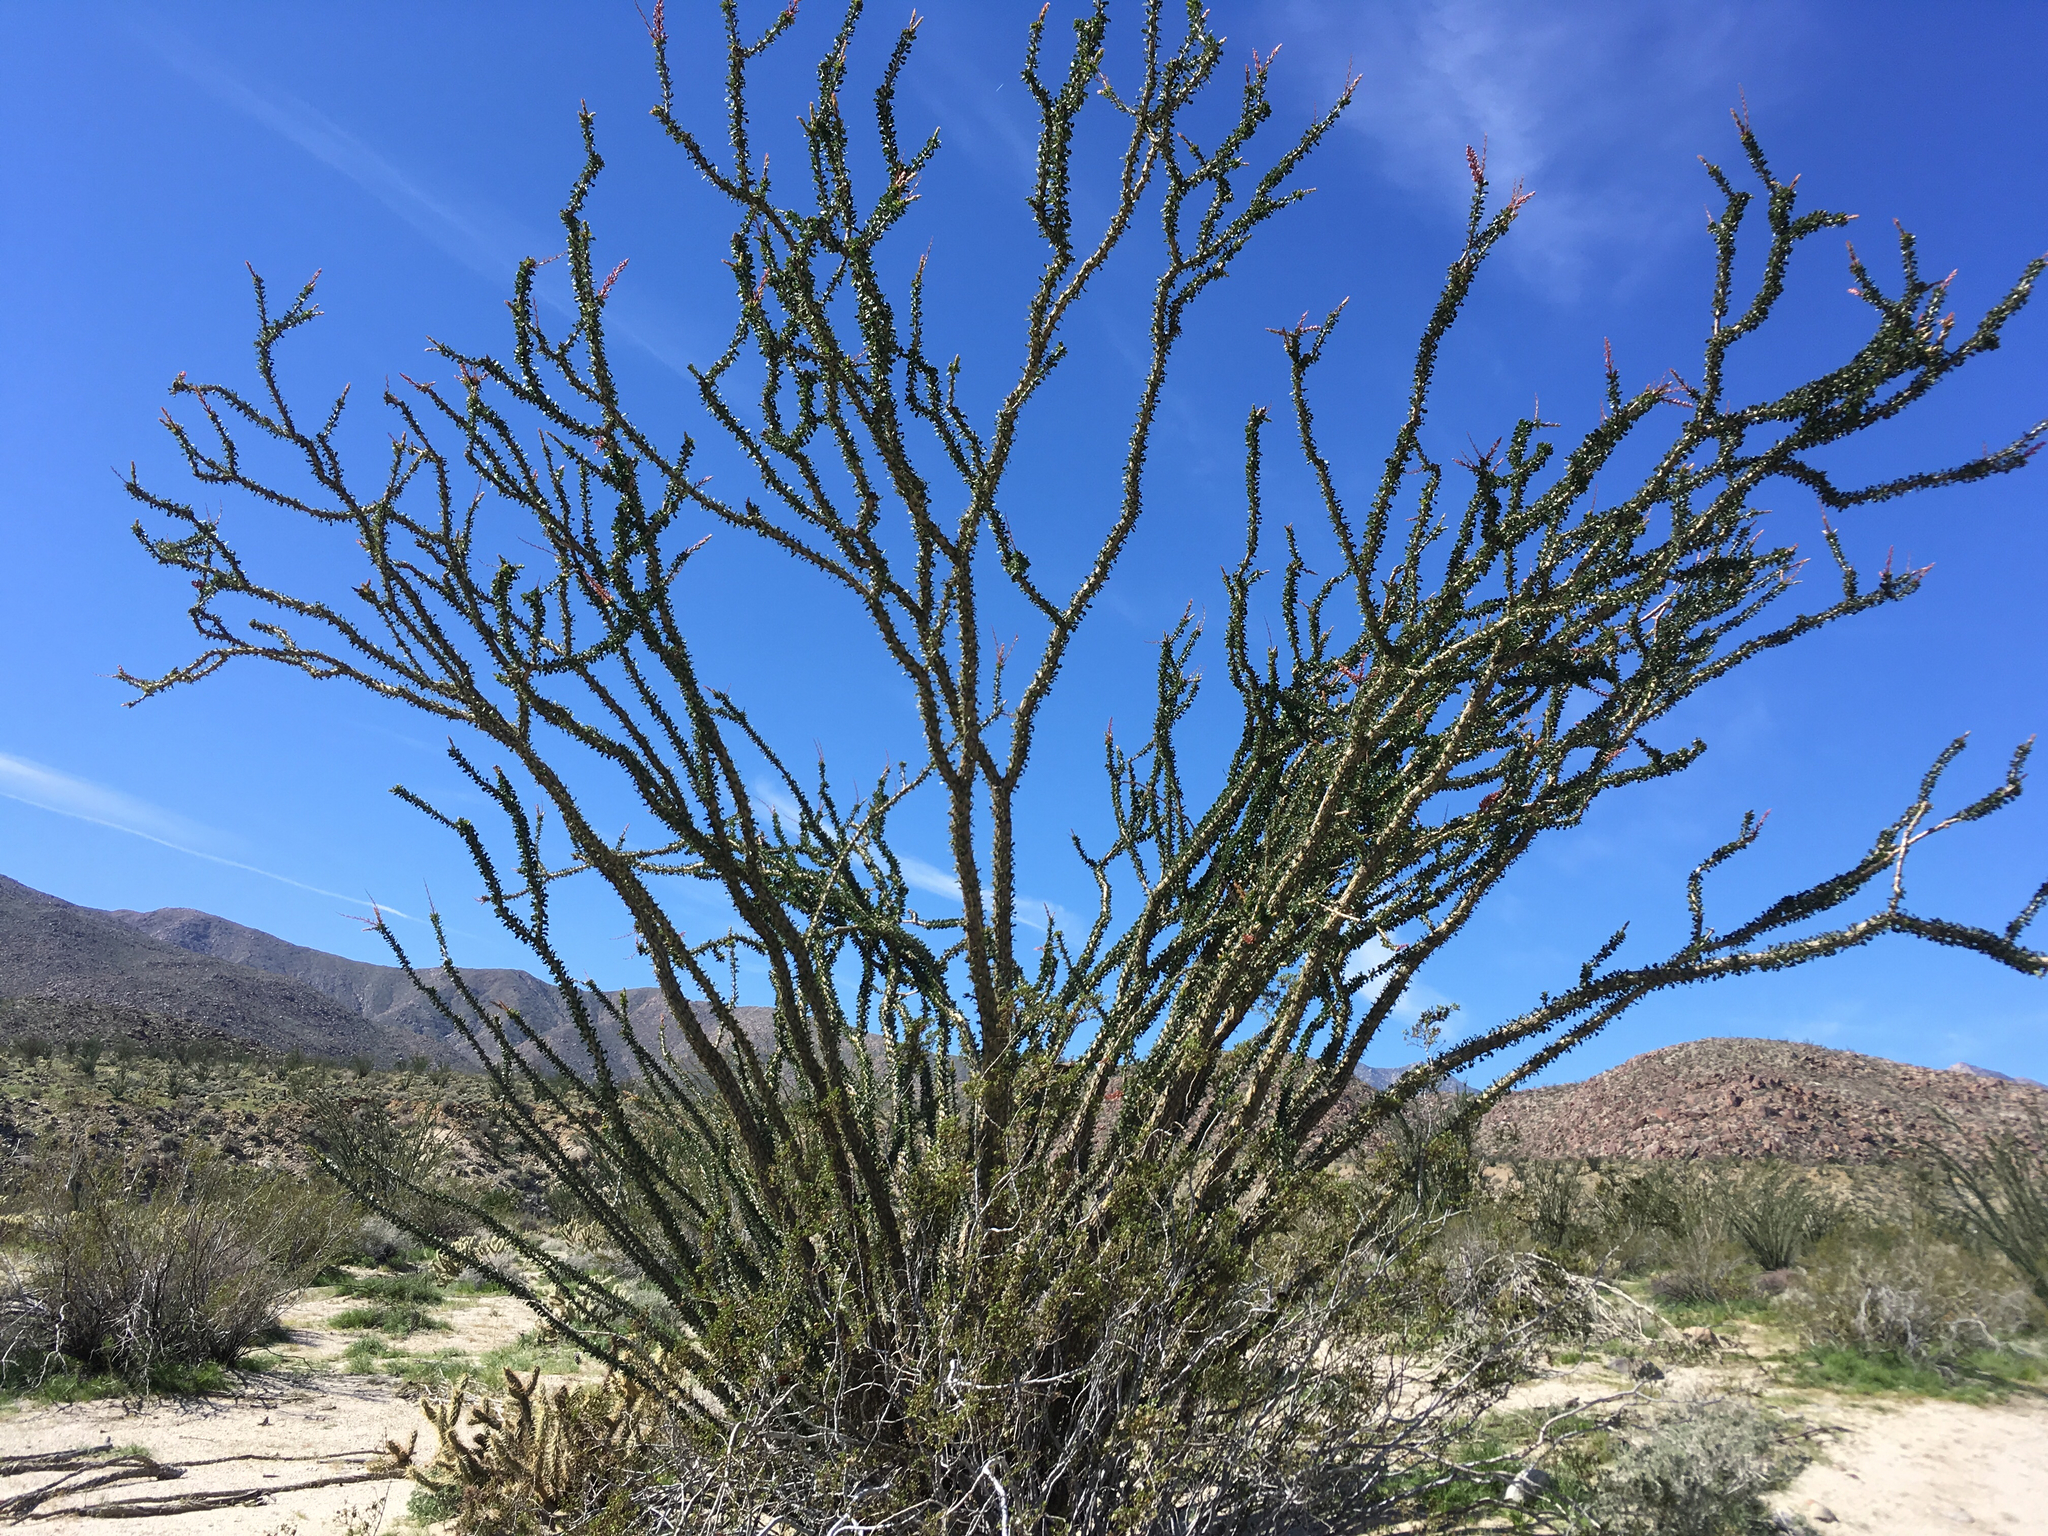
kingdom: Plantae
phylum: Tracheophyta
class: Magnoliopsida
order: Ericales
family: Fouquieriaceae
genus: Fouquieria
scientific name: Fouquieria splendens
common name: Vine-cactus
